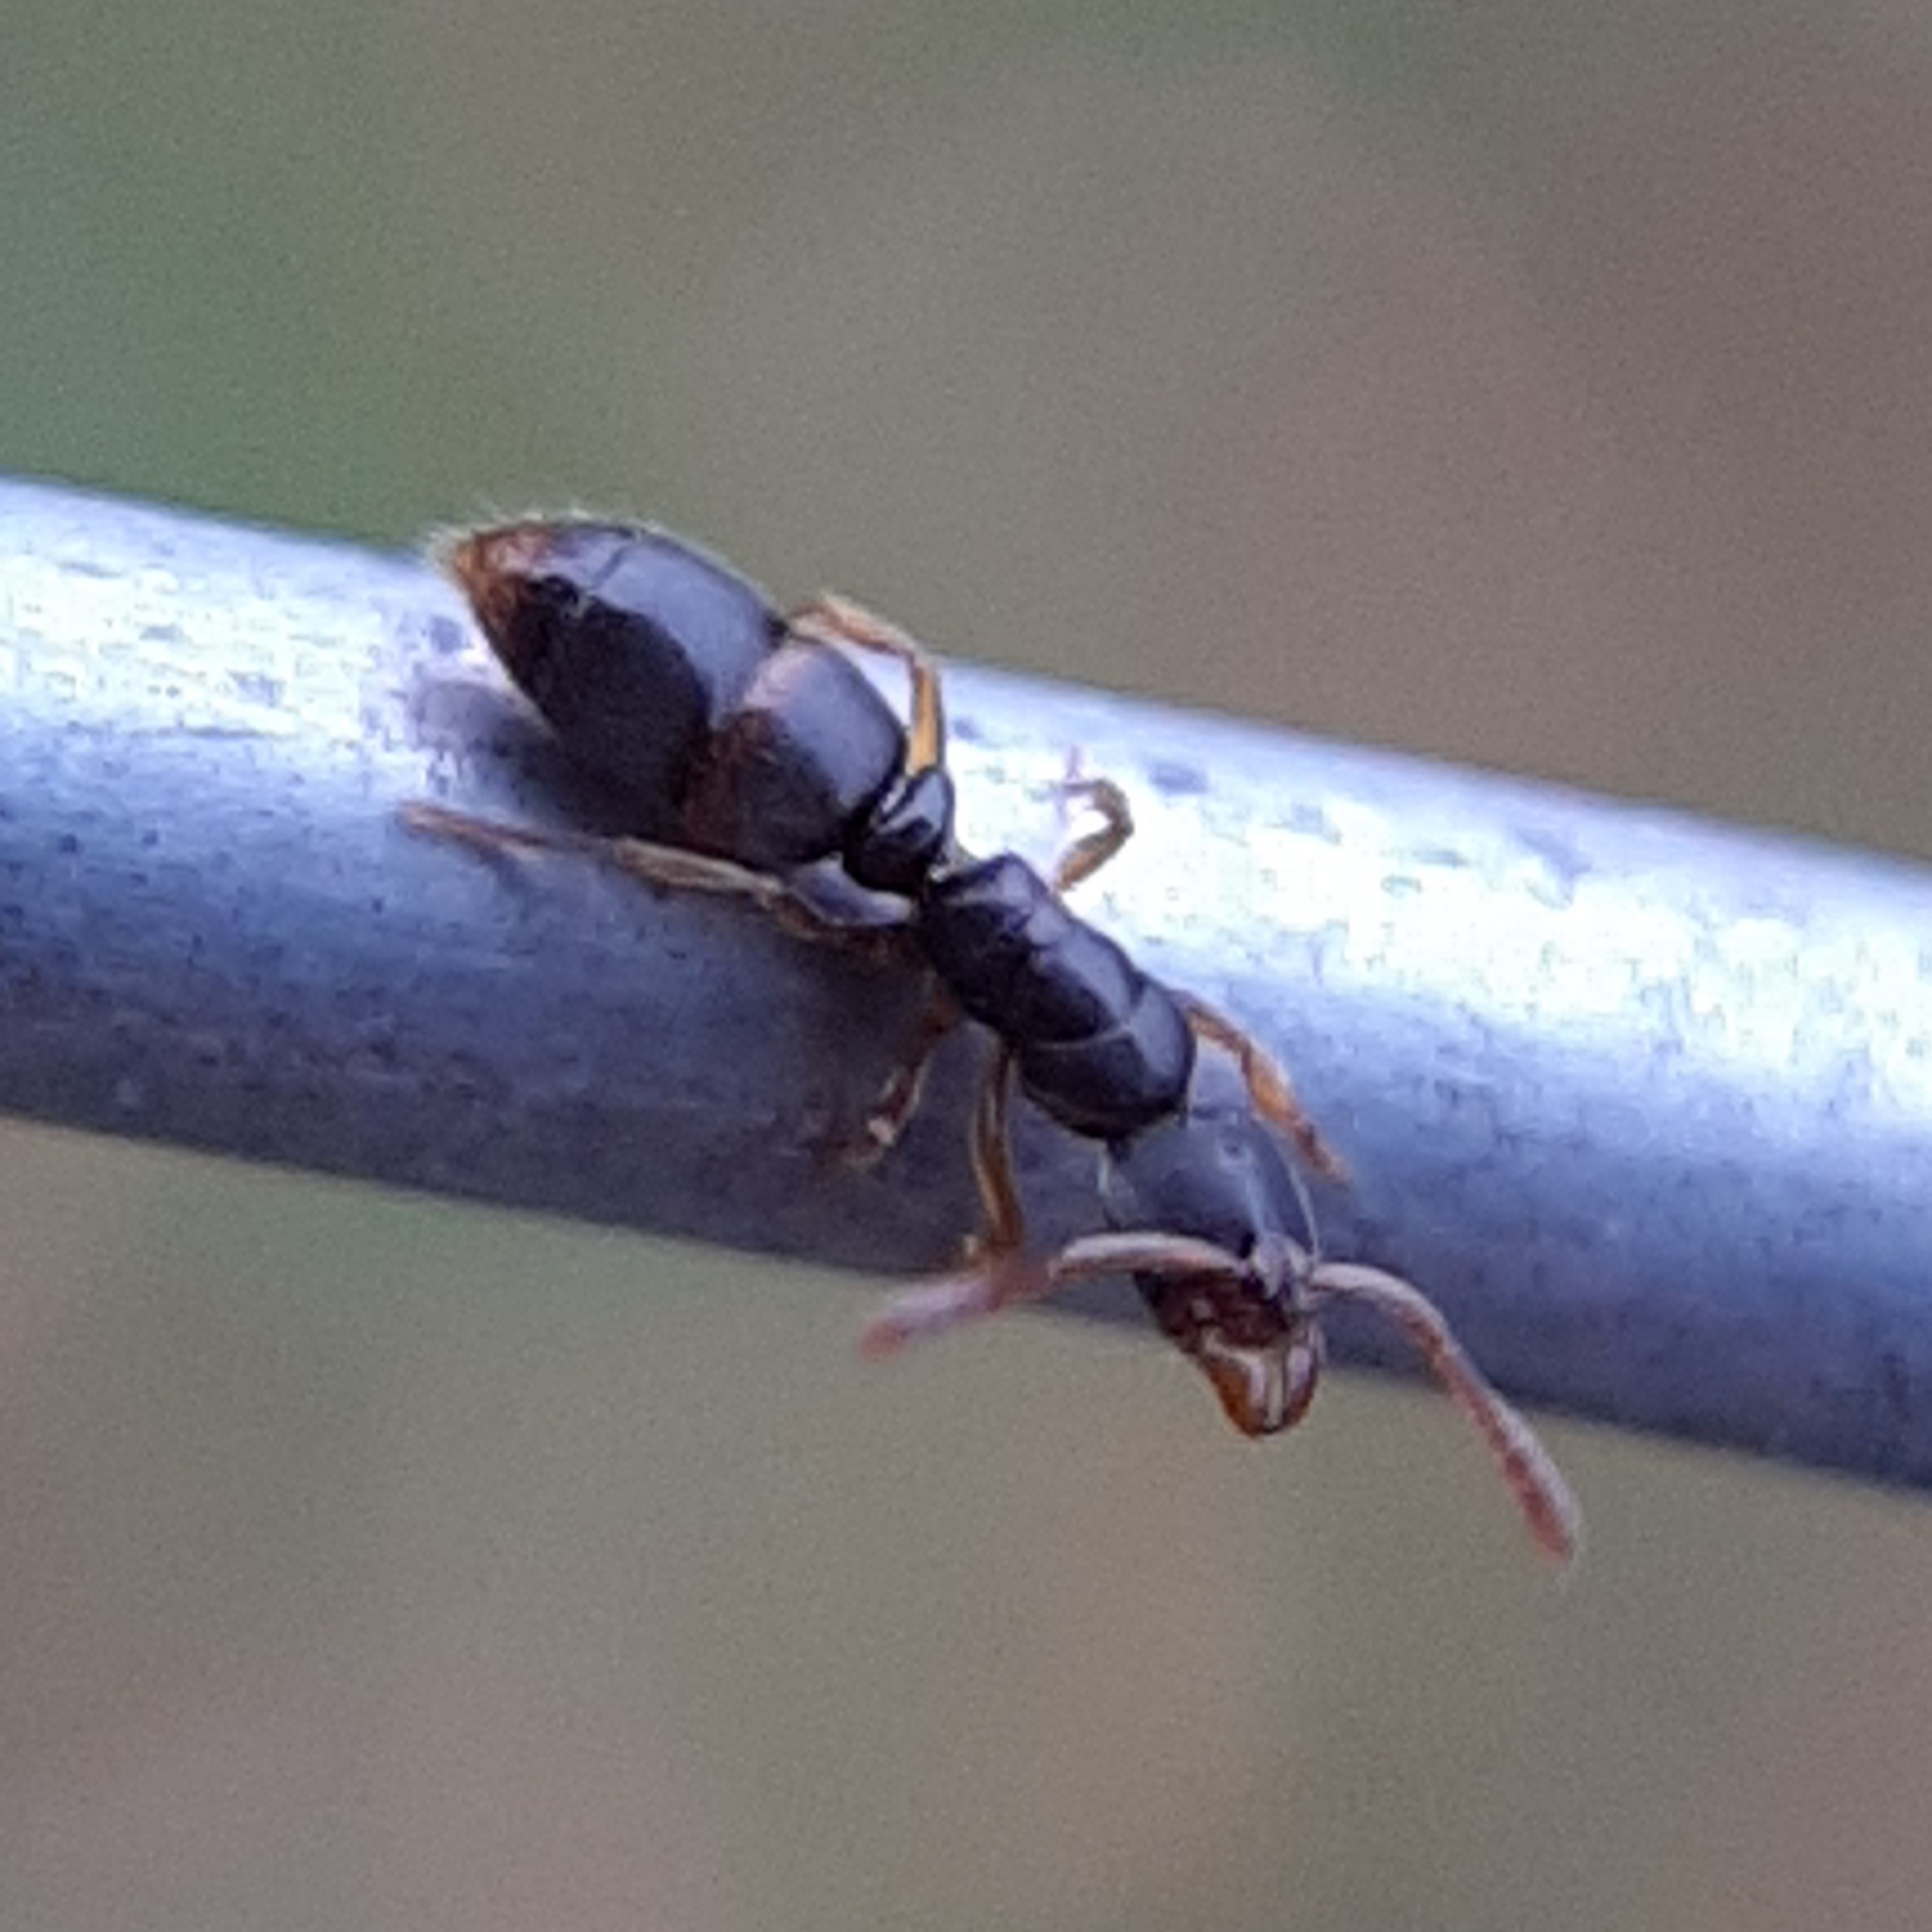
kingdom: Animalia
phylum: Arthropoda
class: Insecta
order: Hymenoptera
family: Formicidae
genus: Ponera
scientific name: Ponera pennsylvanica
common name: Pennsylvania ponera
